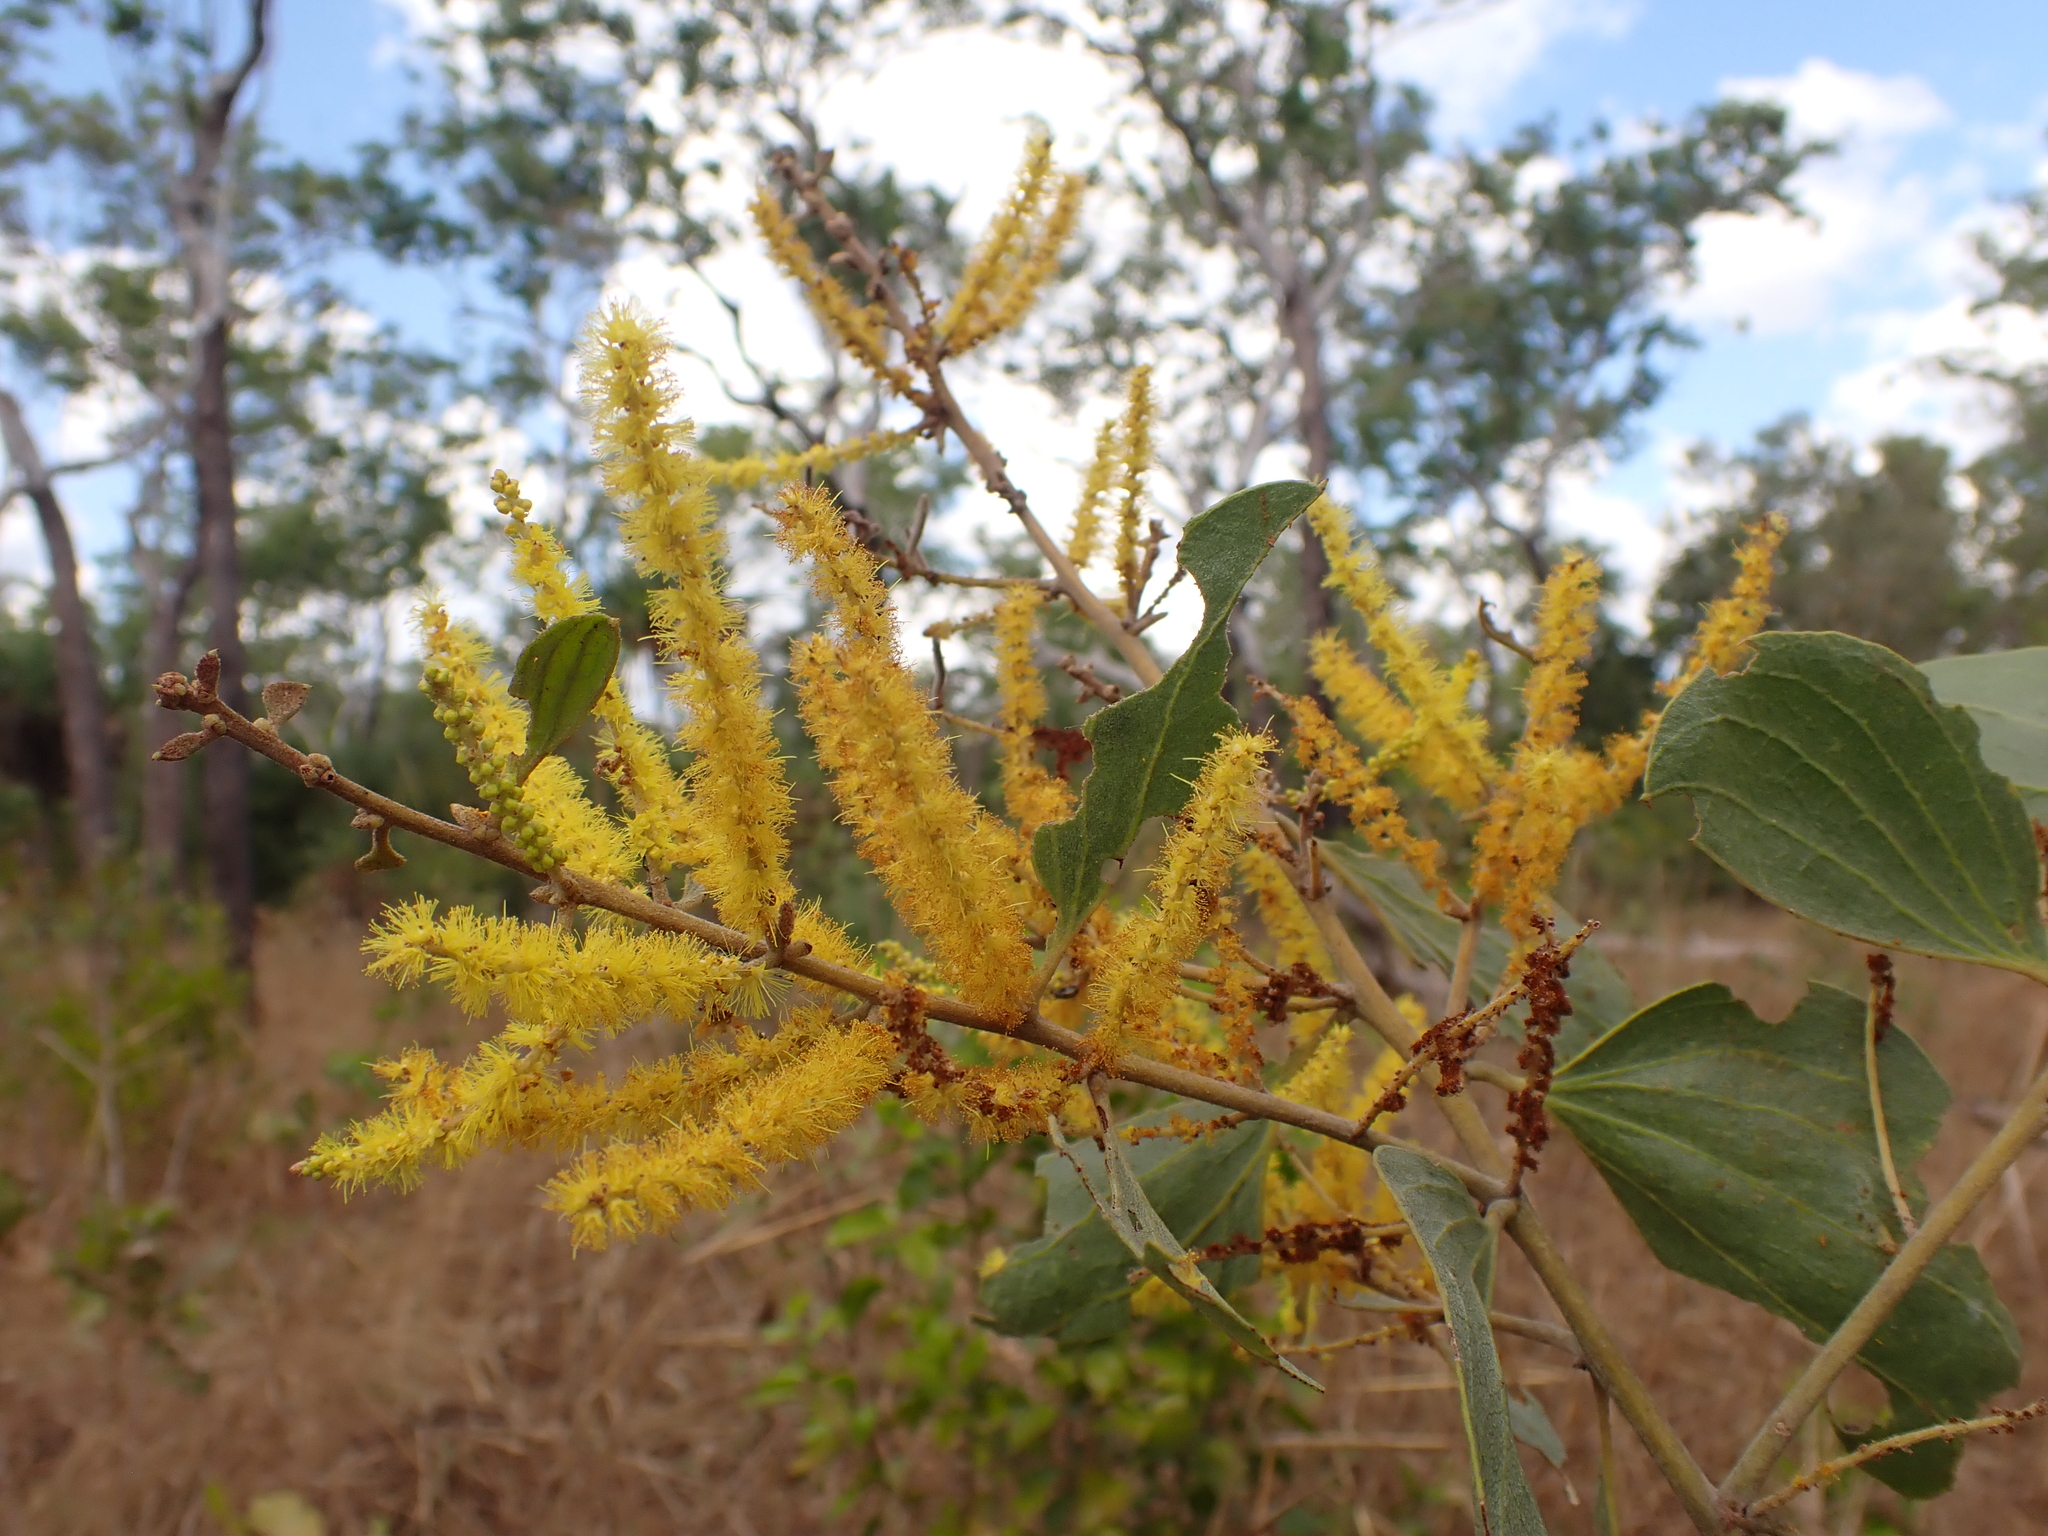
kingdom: Plantae
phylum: Tracheophyta
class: Magnoliopsida
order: Fabales
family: Fabaceae
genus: Acacia
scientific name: Acacia dimidiata
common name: Swamp wattle
